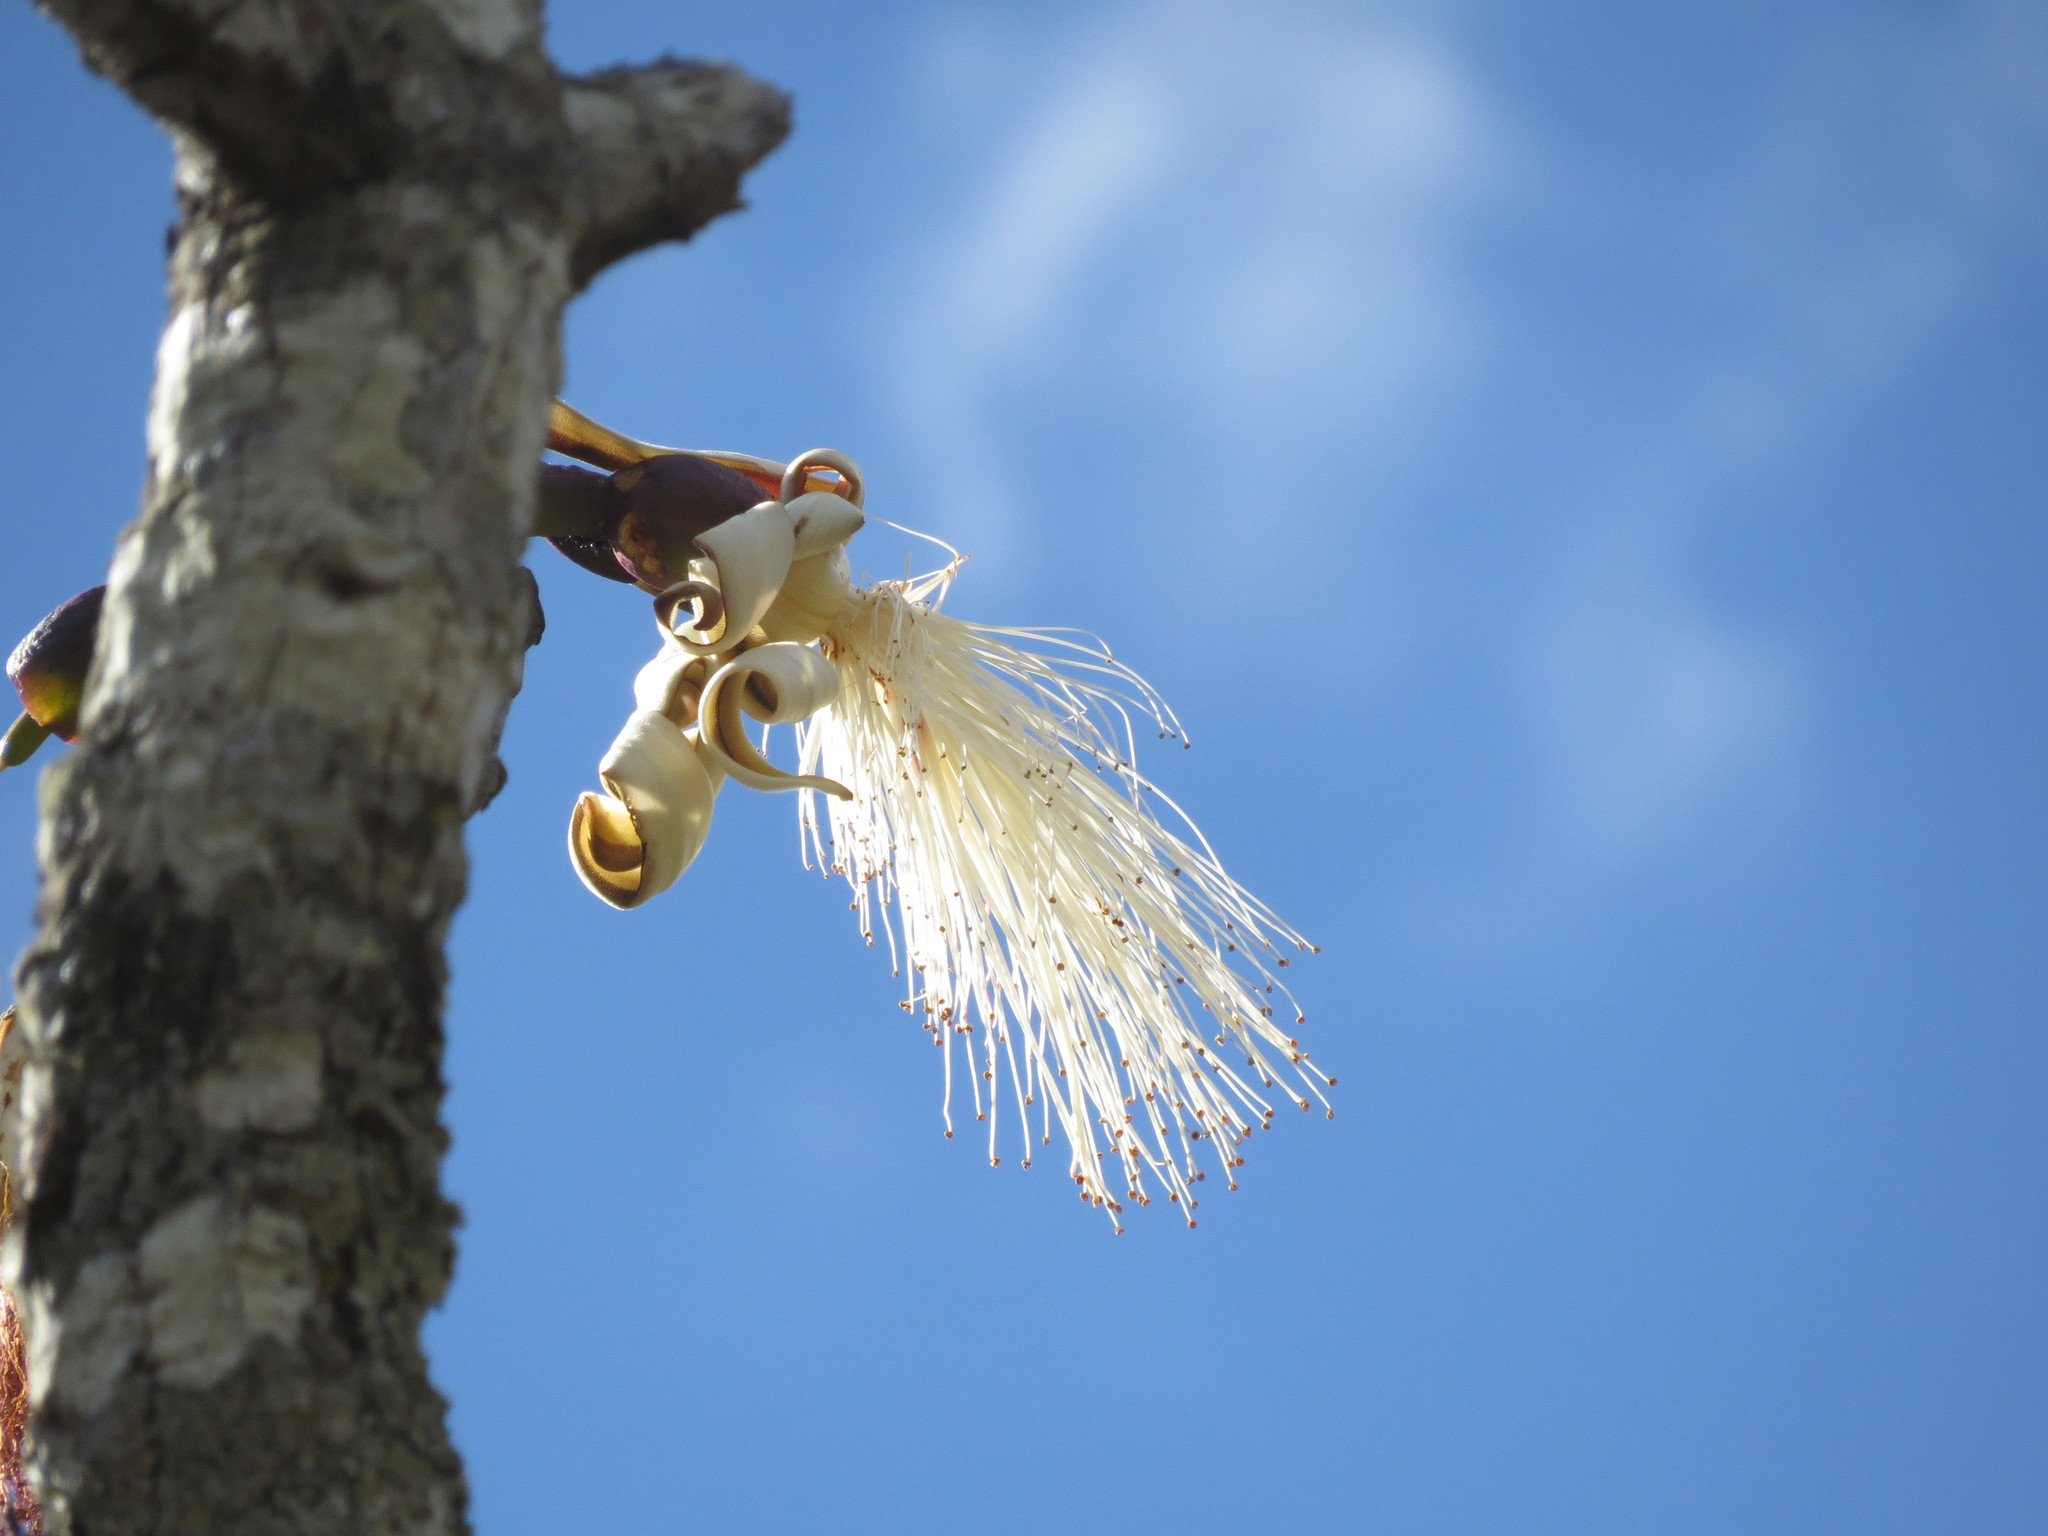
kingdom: Plantae
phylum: Tracheophyta
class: Magnoliopsida
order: Malvales
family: Malvaceae
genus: Pseudobombax
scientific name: Pseudobombax longiflorum
